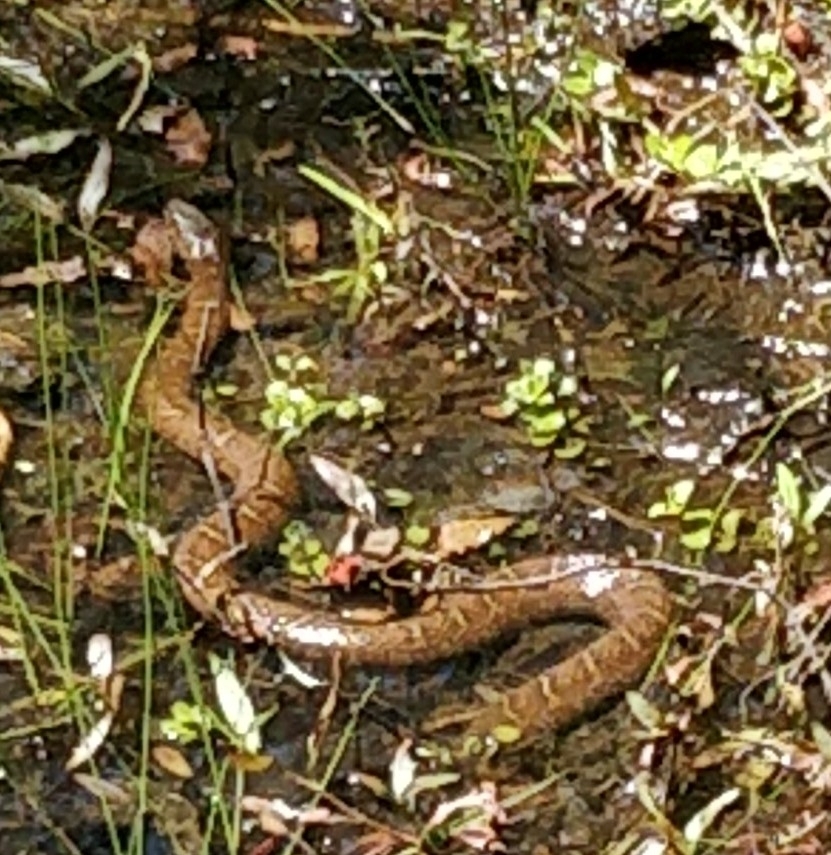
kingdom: Animalia
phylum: Chordata
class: Squamata
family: Colubridae
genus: Nerodia
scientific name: Nerodia sipedon
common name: Northern water snake
